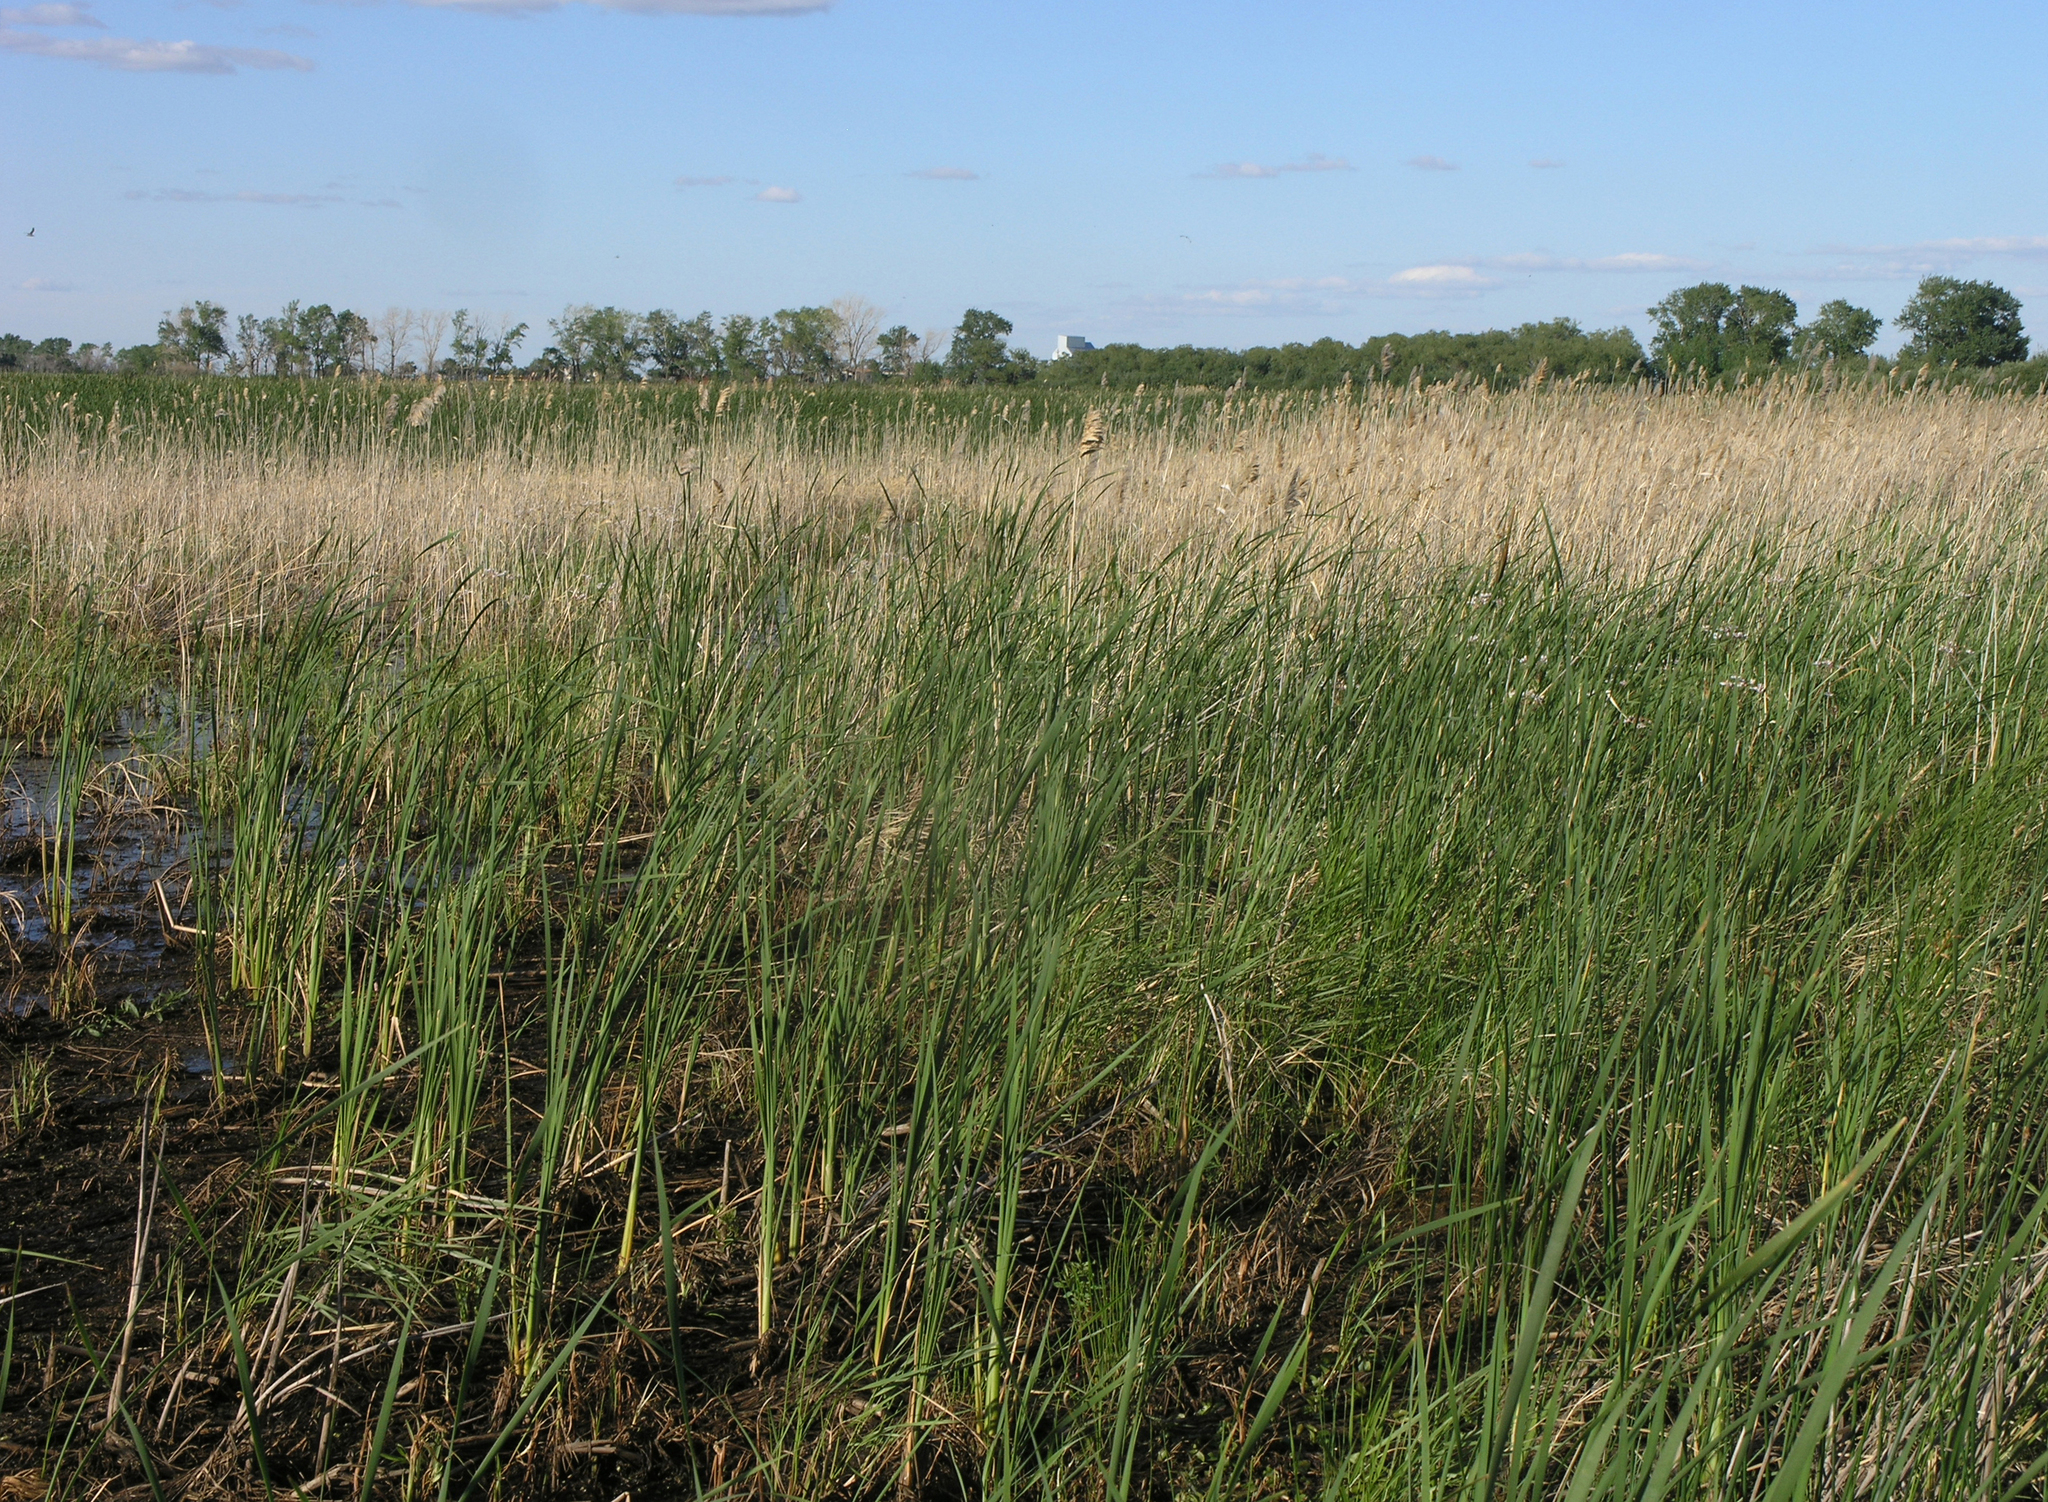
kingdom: Plantae
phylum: Tracheophyta
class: Liliopsida
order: Poales
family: Poaceae
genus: Phragmites
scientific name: Phragmites australis
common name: Common reed
